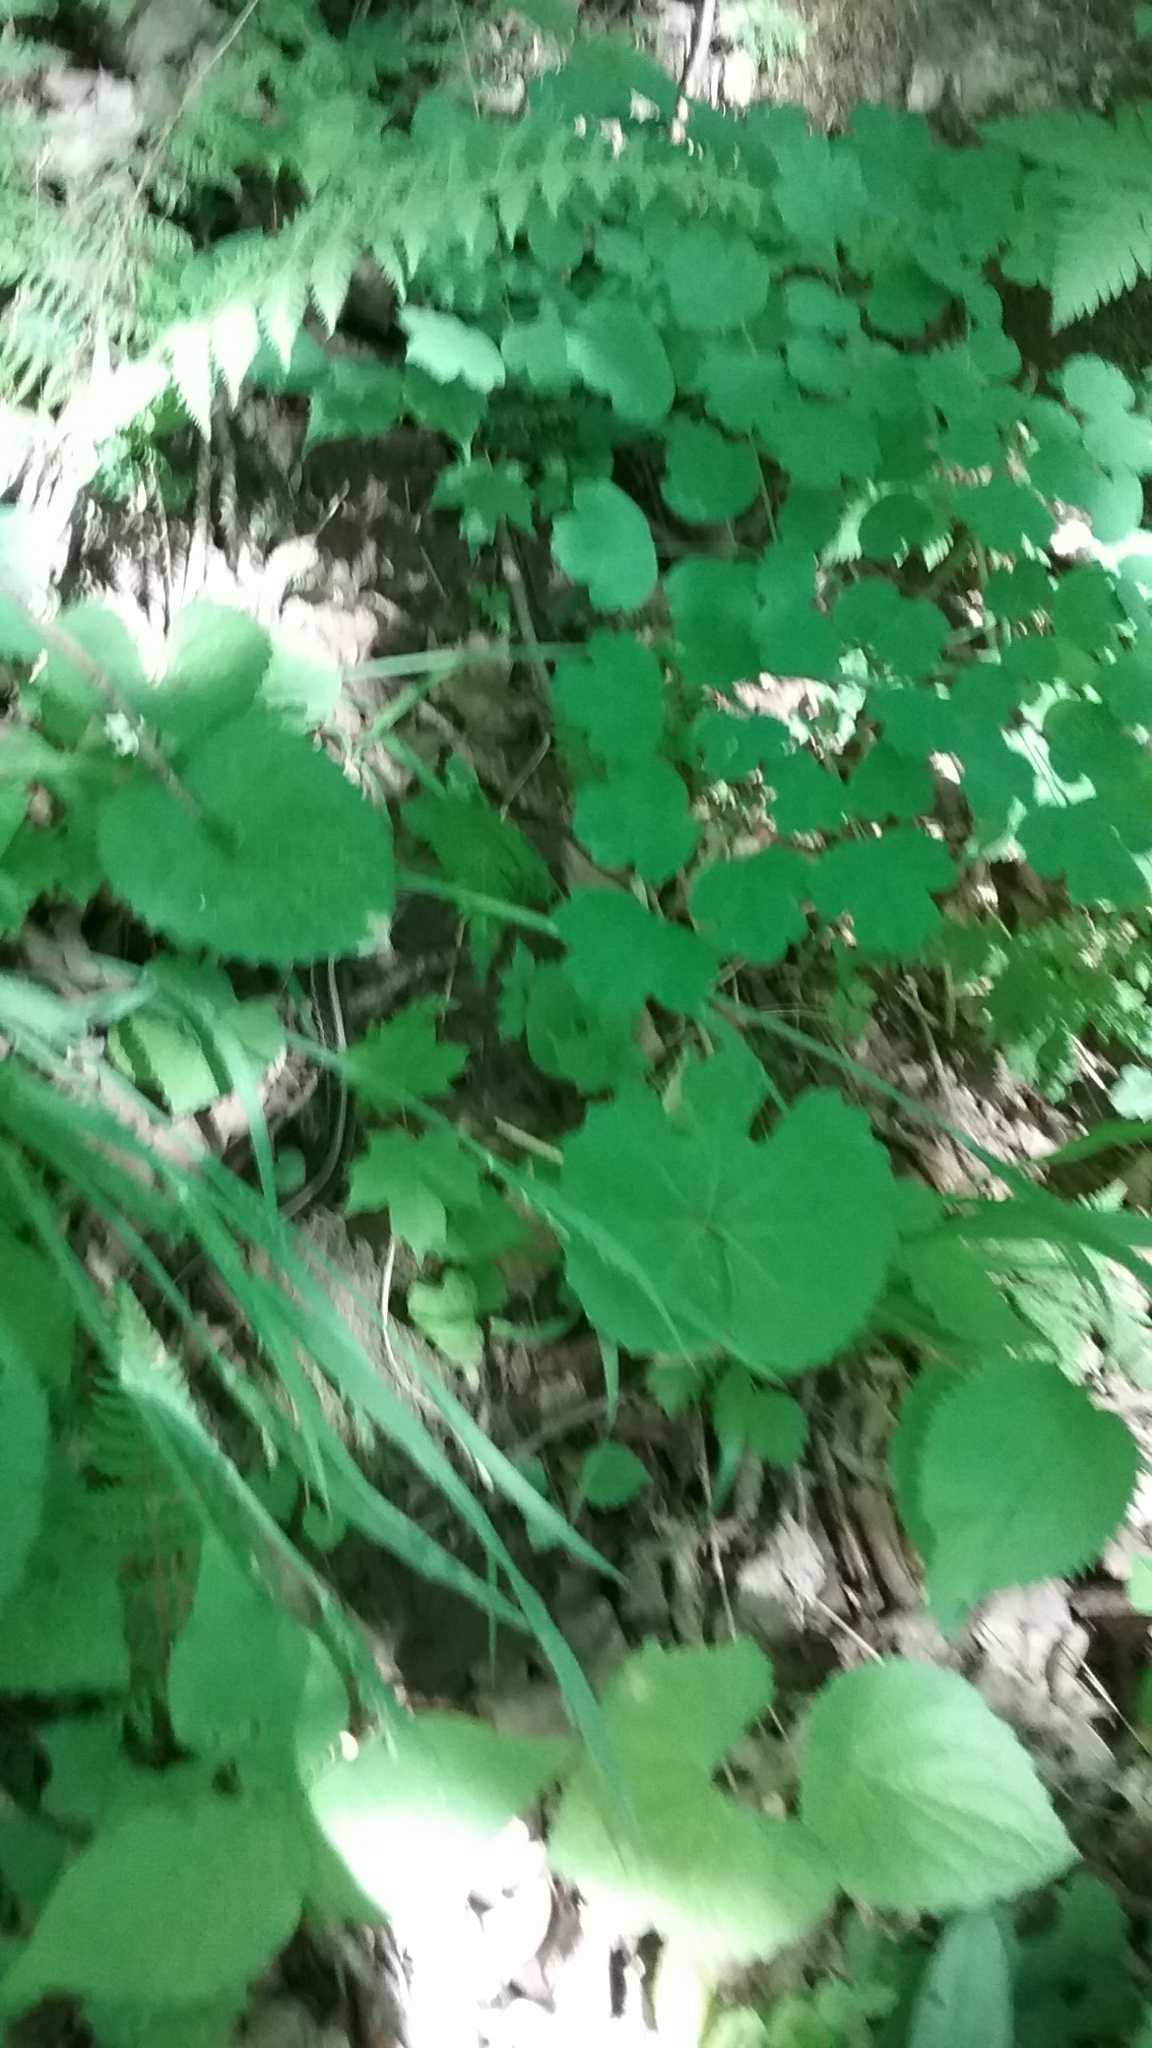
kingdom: Animalia
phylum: Chordata
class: Squamata
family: Colubridae
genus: Thamnophis
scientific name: Thamnophis sirtalis
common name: Common garter snake
